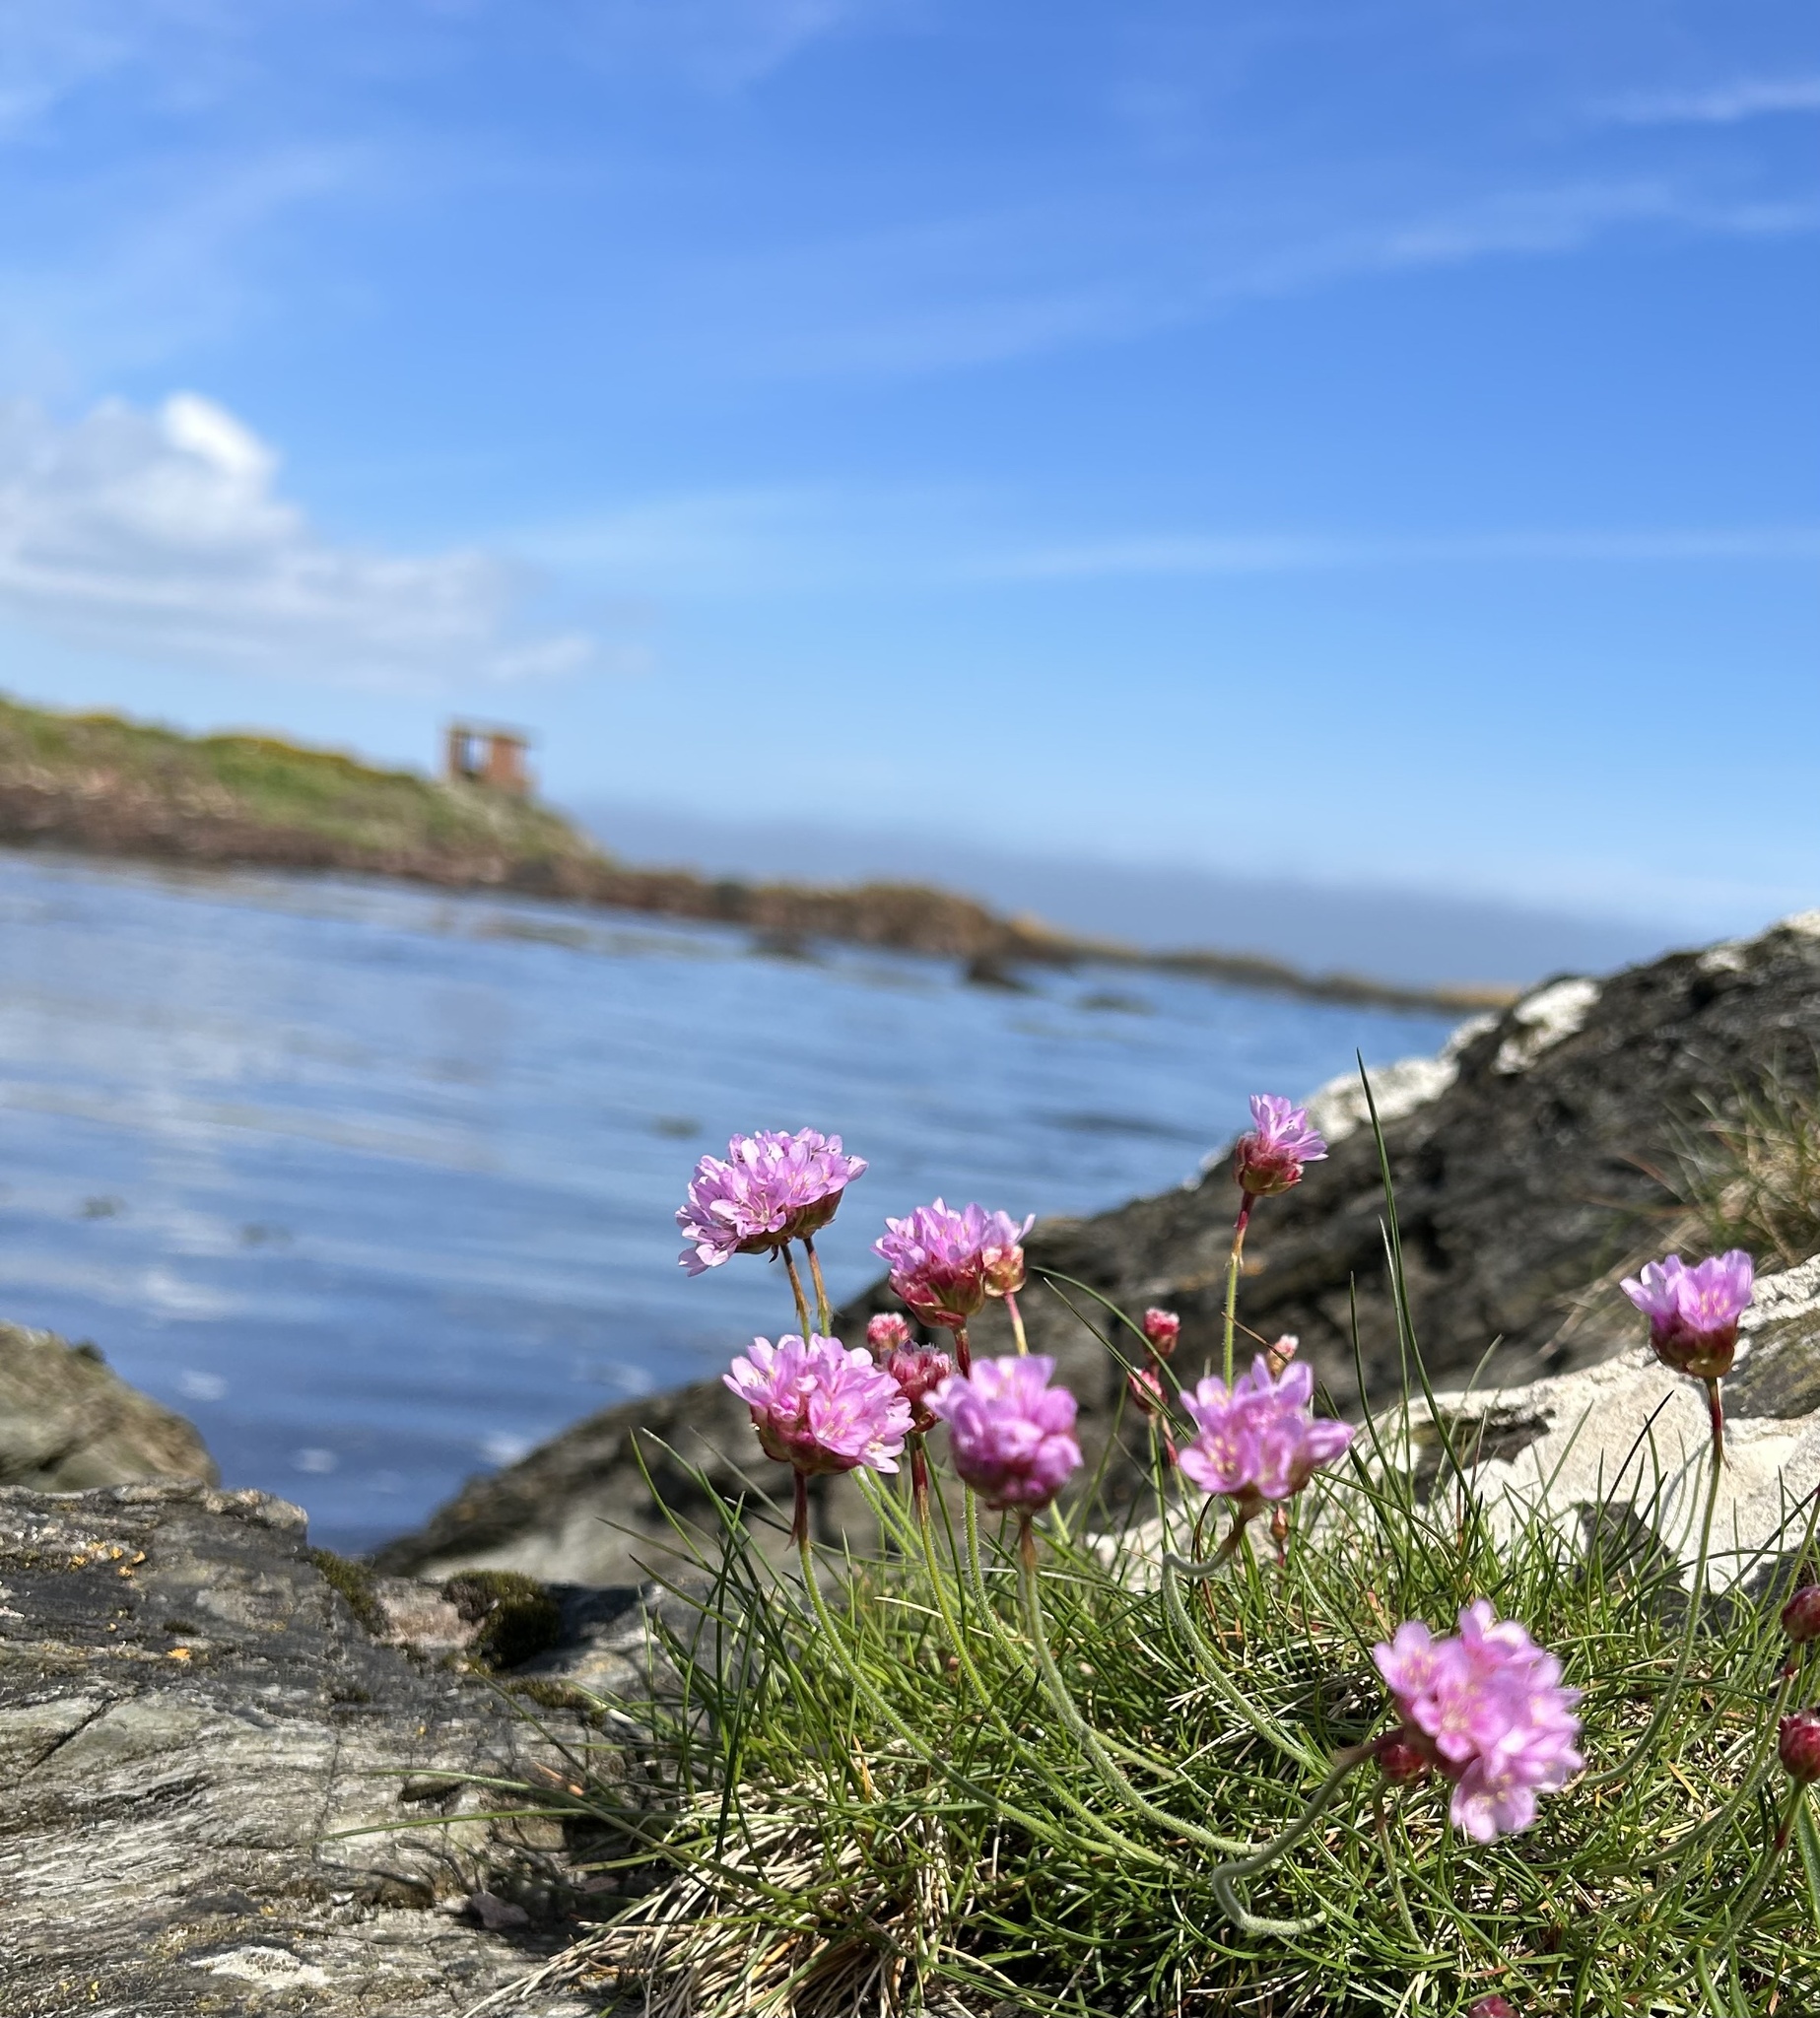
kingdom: Plantae
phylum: Tracheophyta
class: Magnoliopsida
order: Caryophyllales
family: Plumbaginaceae
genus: Armeria
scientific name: Armeria maritima
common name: Thrift
